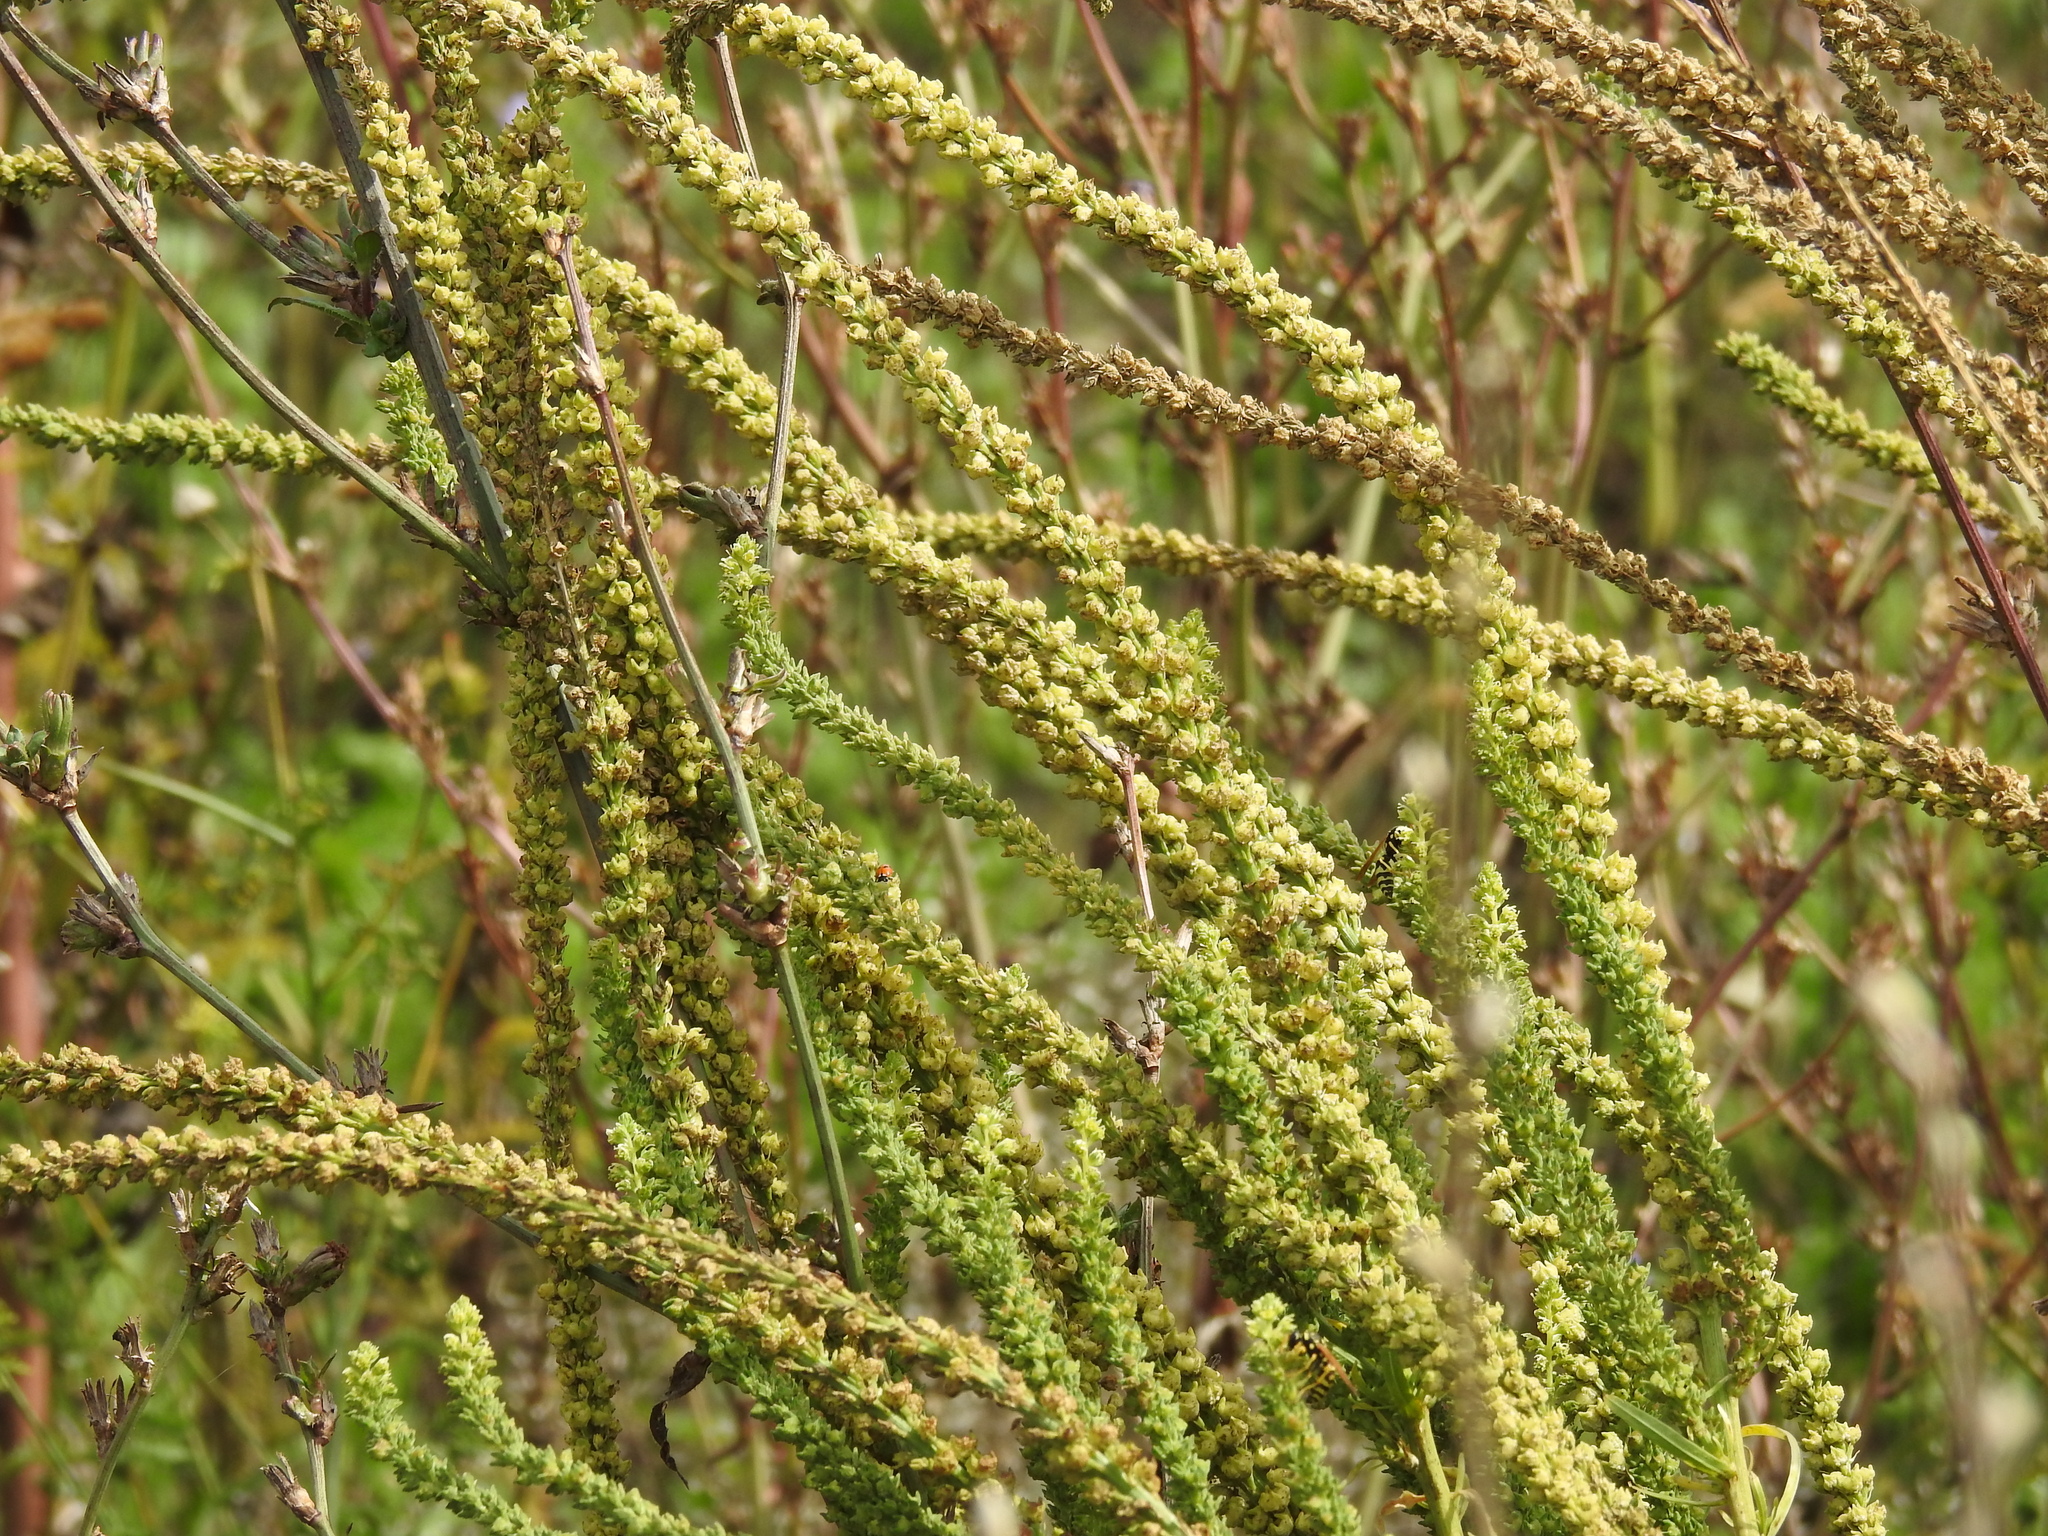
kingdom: Plantae
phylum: Tracheophyta
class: Magnoliopsida
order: Brassicales
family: Resedaceae
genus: Reseda
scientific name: Reseda luteola
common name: Weld
